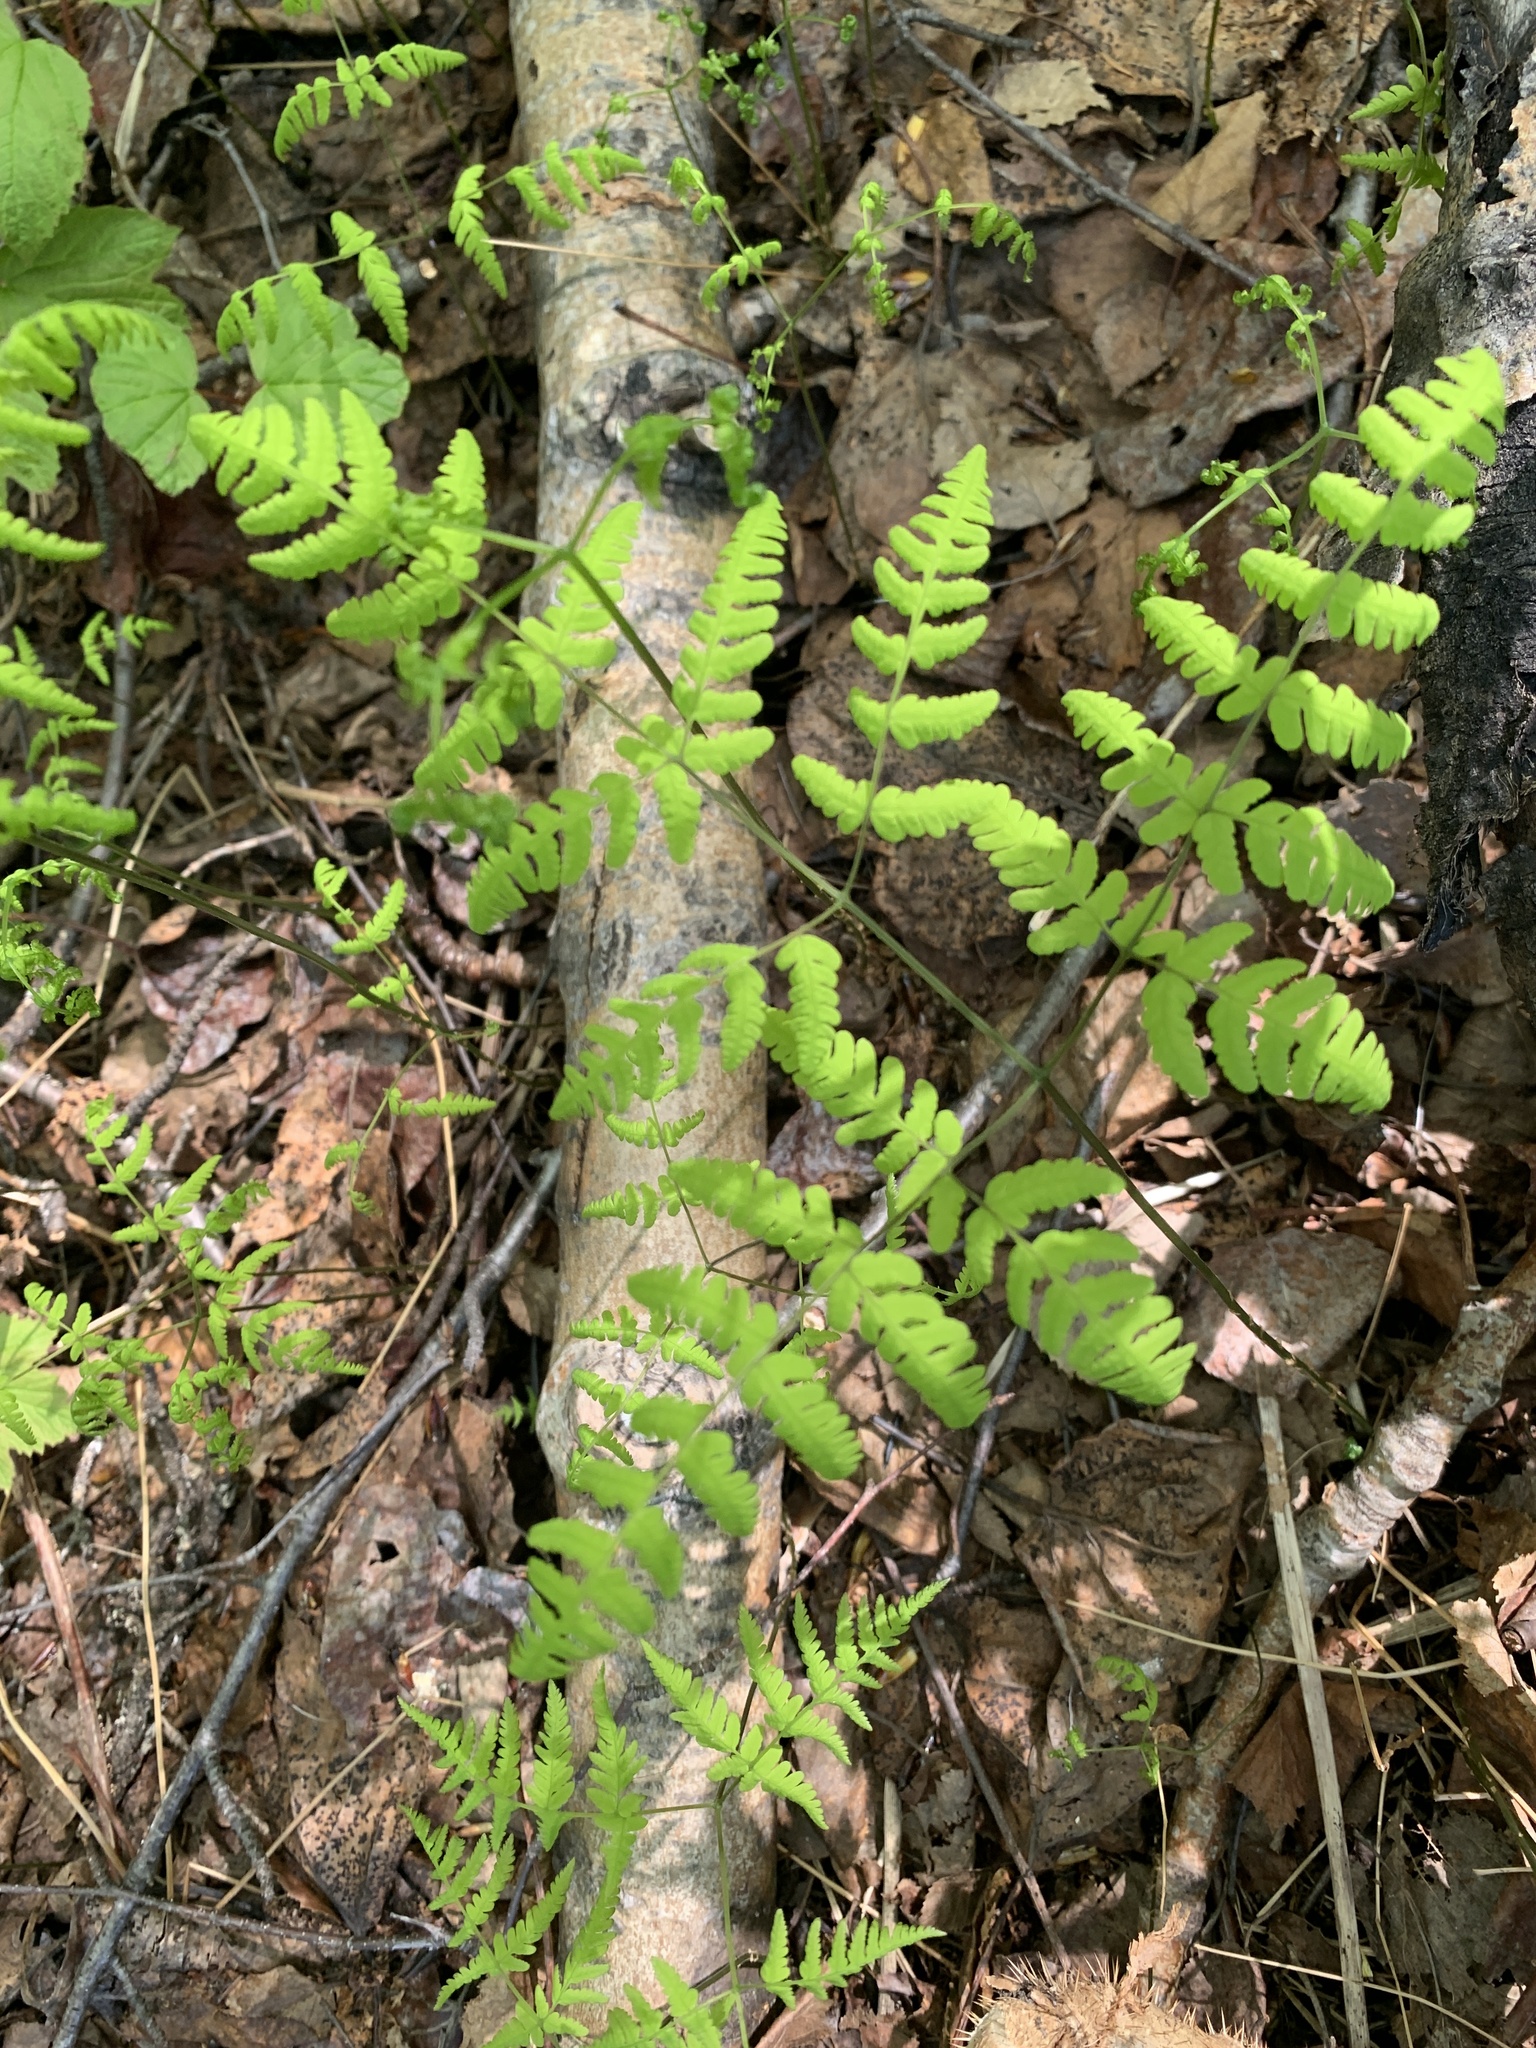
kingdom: Plantae
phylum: Tracheophyta
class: Polypodiopsida
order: Polypodiales
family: Cystopteridaceae
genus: Gymnocarpium
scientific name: Gymnocarpium dryopteris
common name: Oak fern
